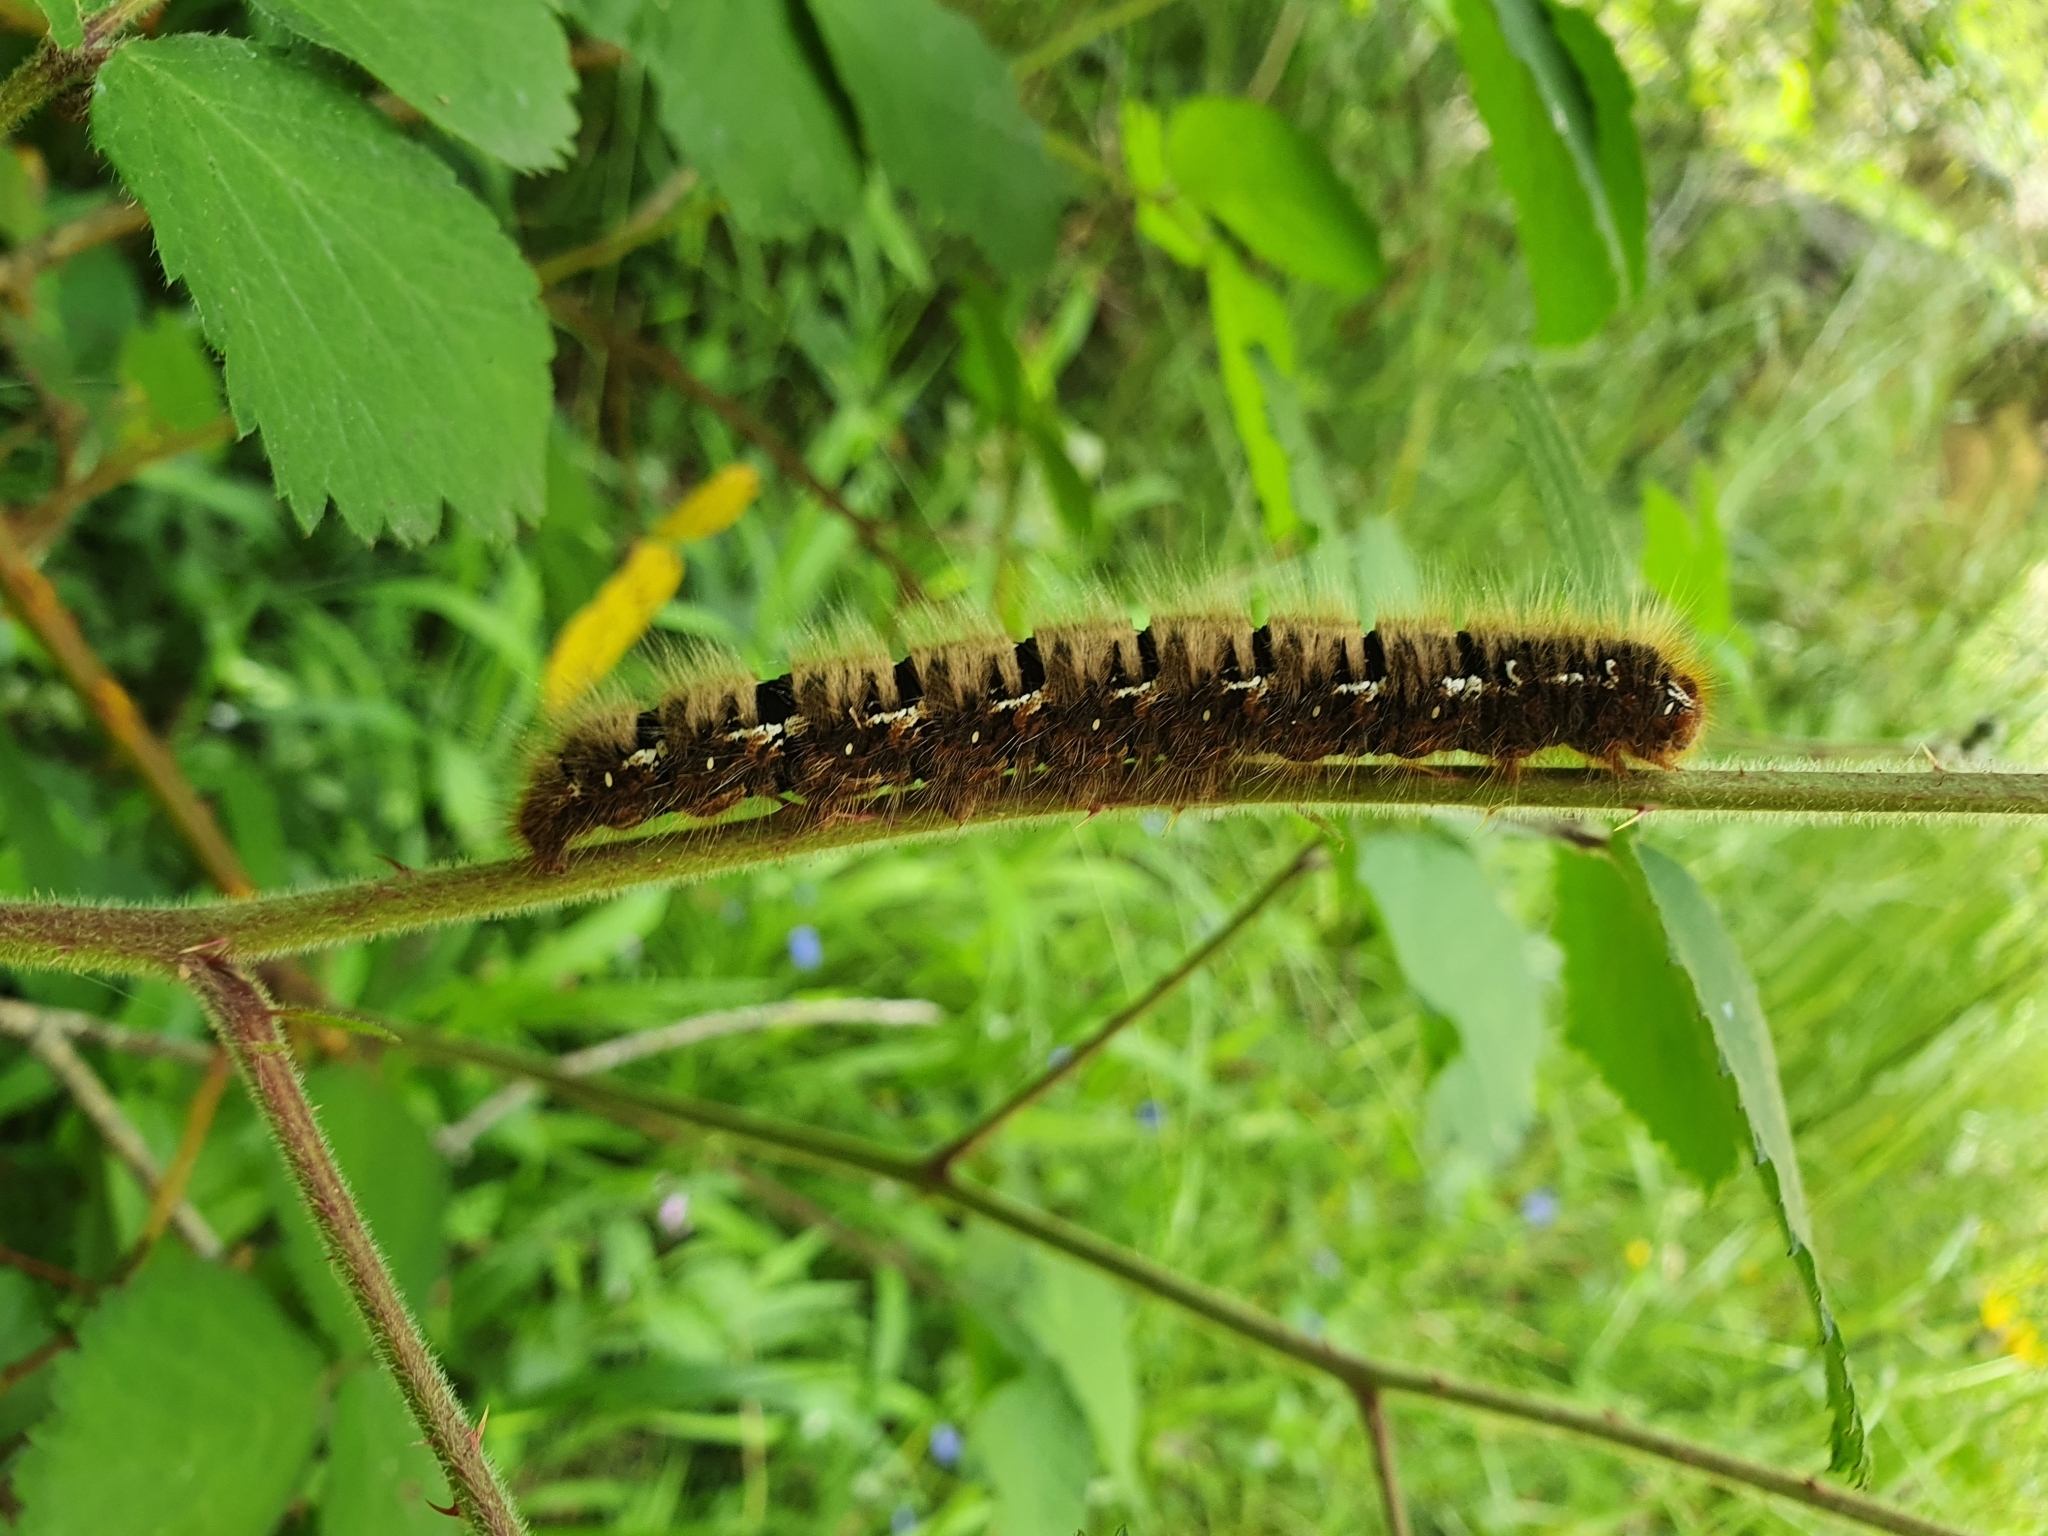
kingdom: Animalia
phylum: Arthropoda
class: Insecta
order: Lepidoptera
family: Lasiocampidae
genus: Lasiocampa
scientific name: Lasiocampa quercus
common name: Oak eggar
